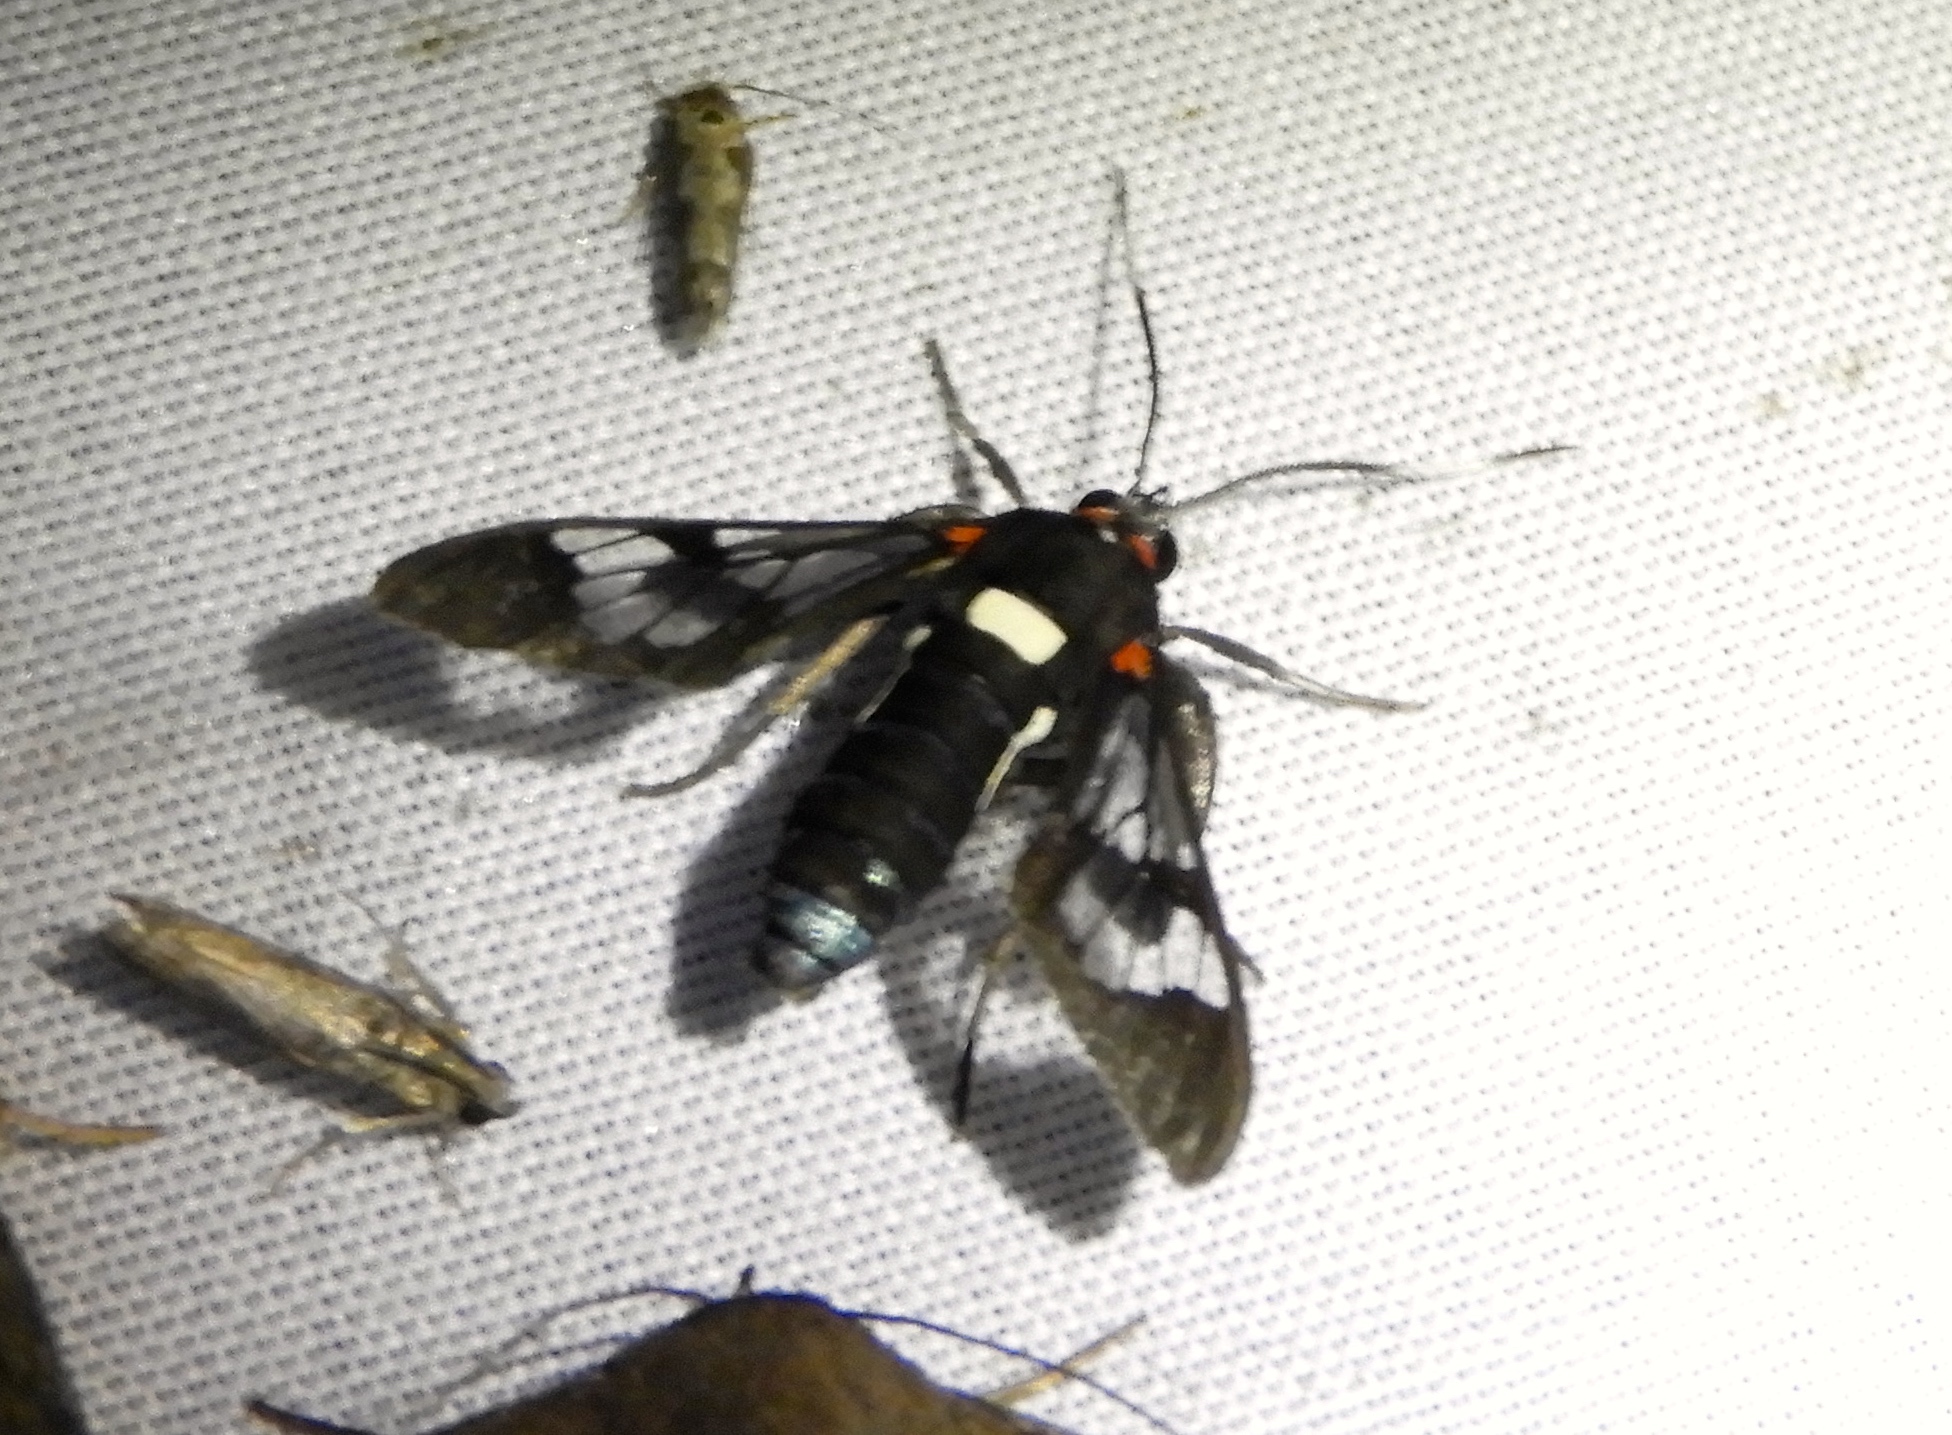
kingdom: Animalia
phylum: Arthropoda
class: Insecta
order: Lepidoptera
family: Erebidae
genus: Pheia
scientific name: Pheia albisigna
